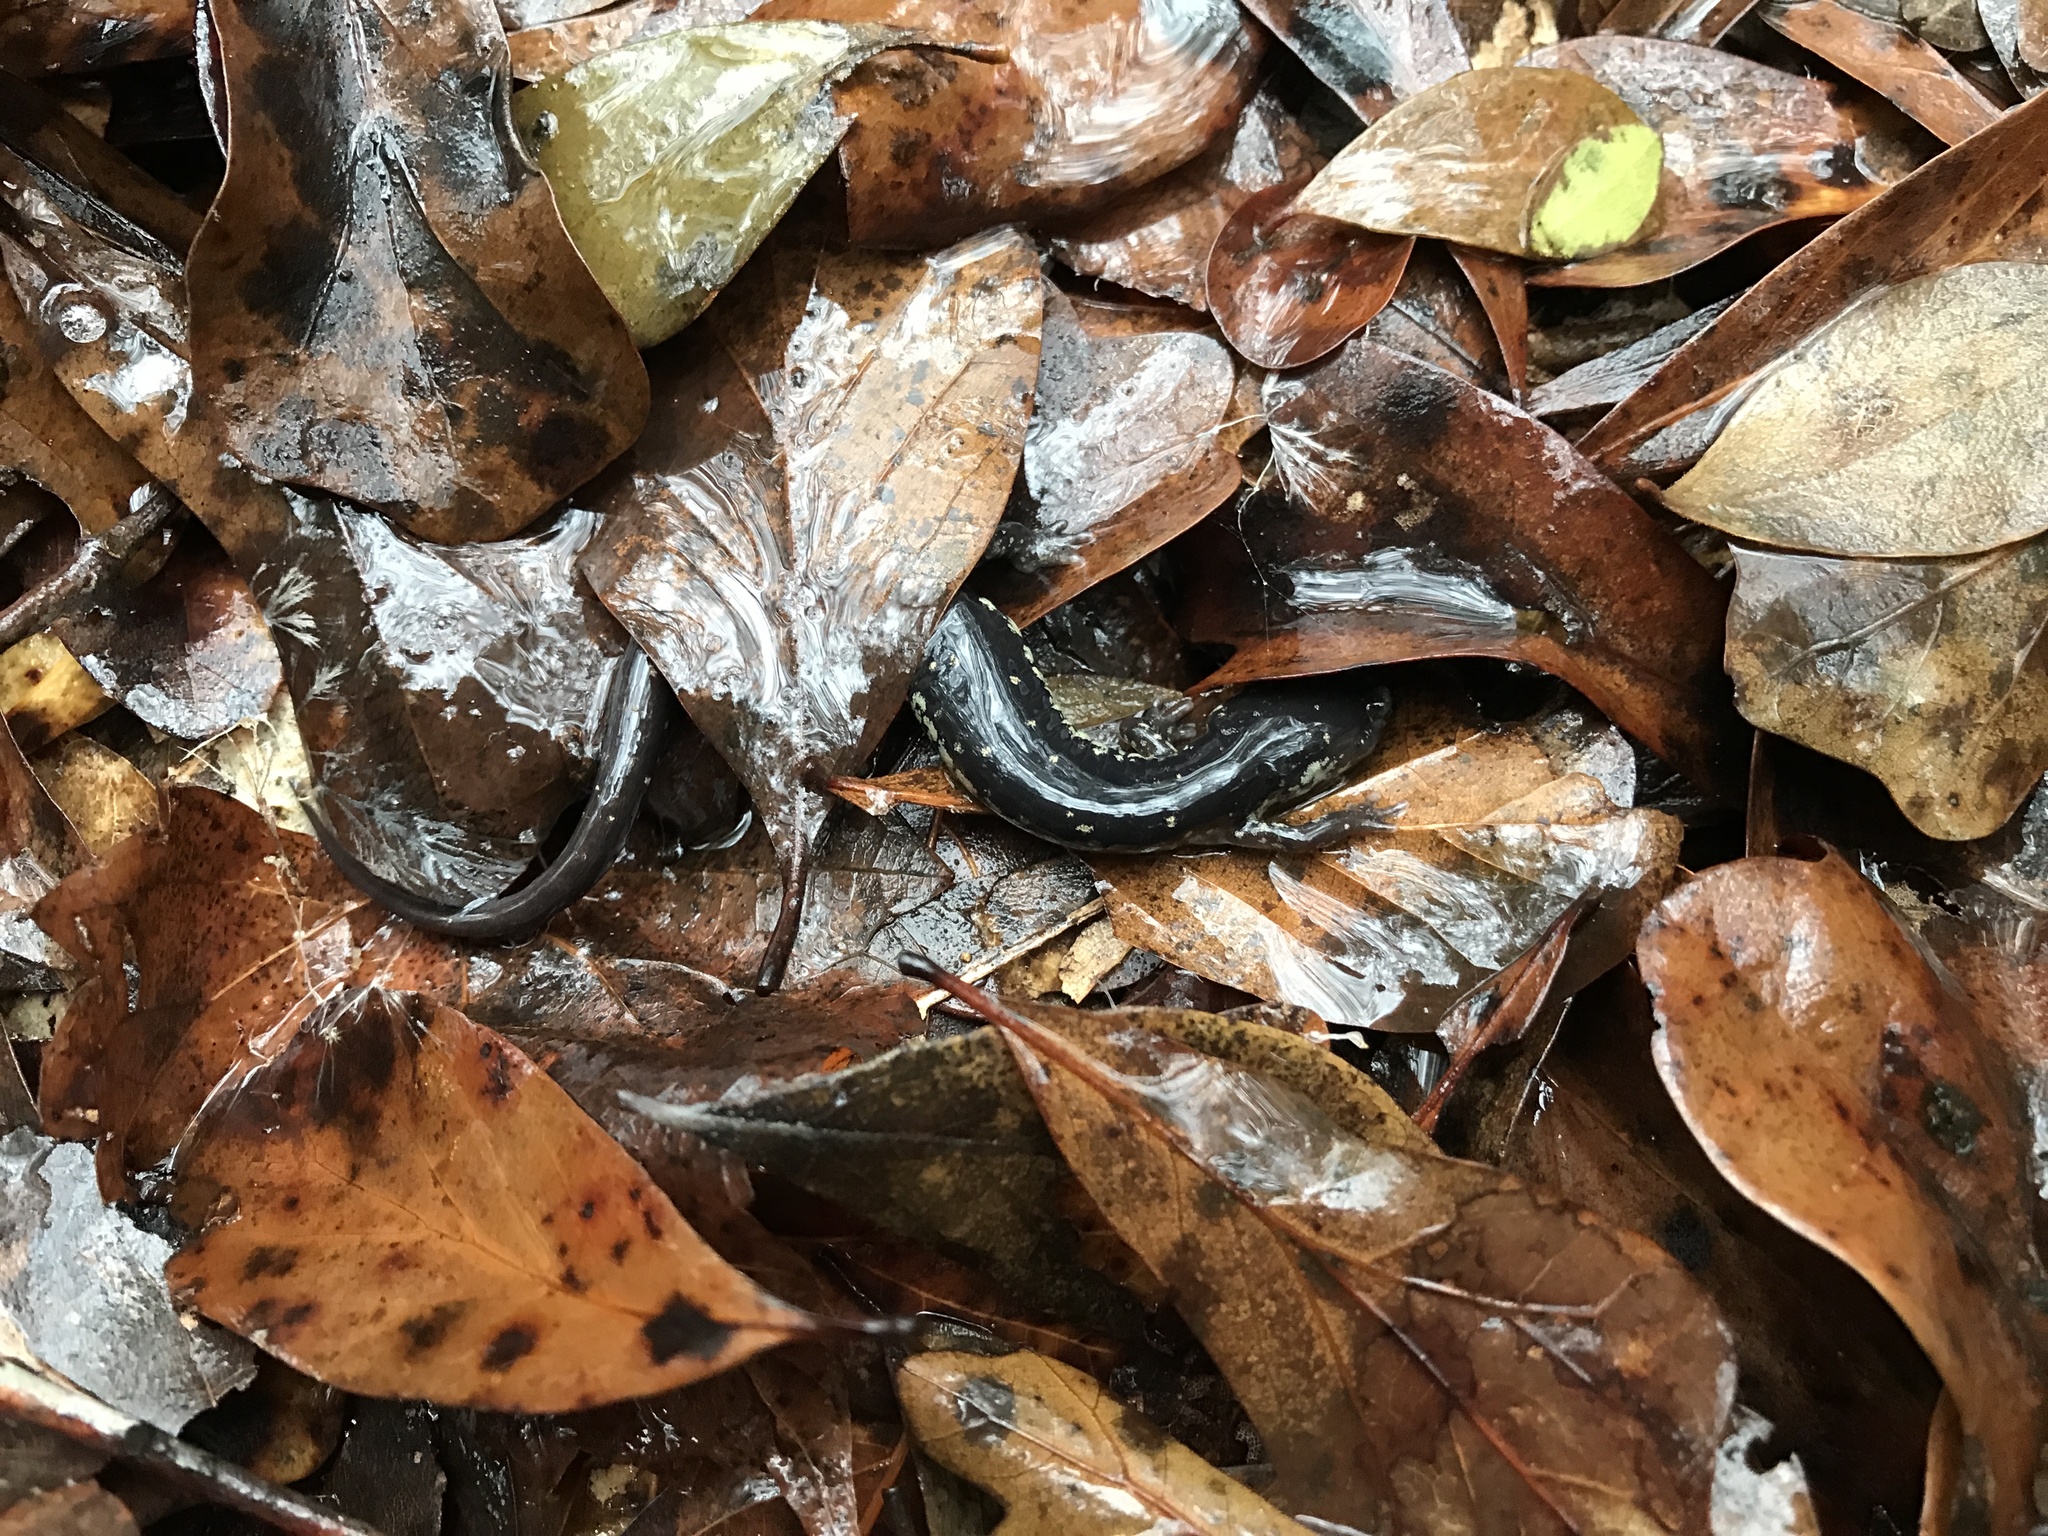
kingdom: Animalia
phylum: Chordata
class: Amphibia
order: Caudata
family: Plethodontidae
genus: Plethodon
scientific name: Plethodon mississippi
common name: Mississippi slimy salamander
